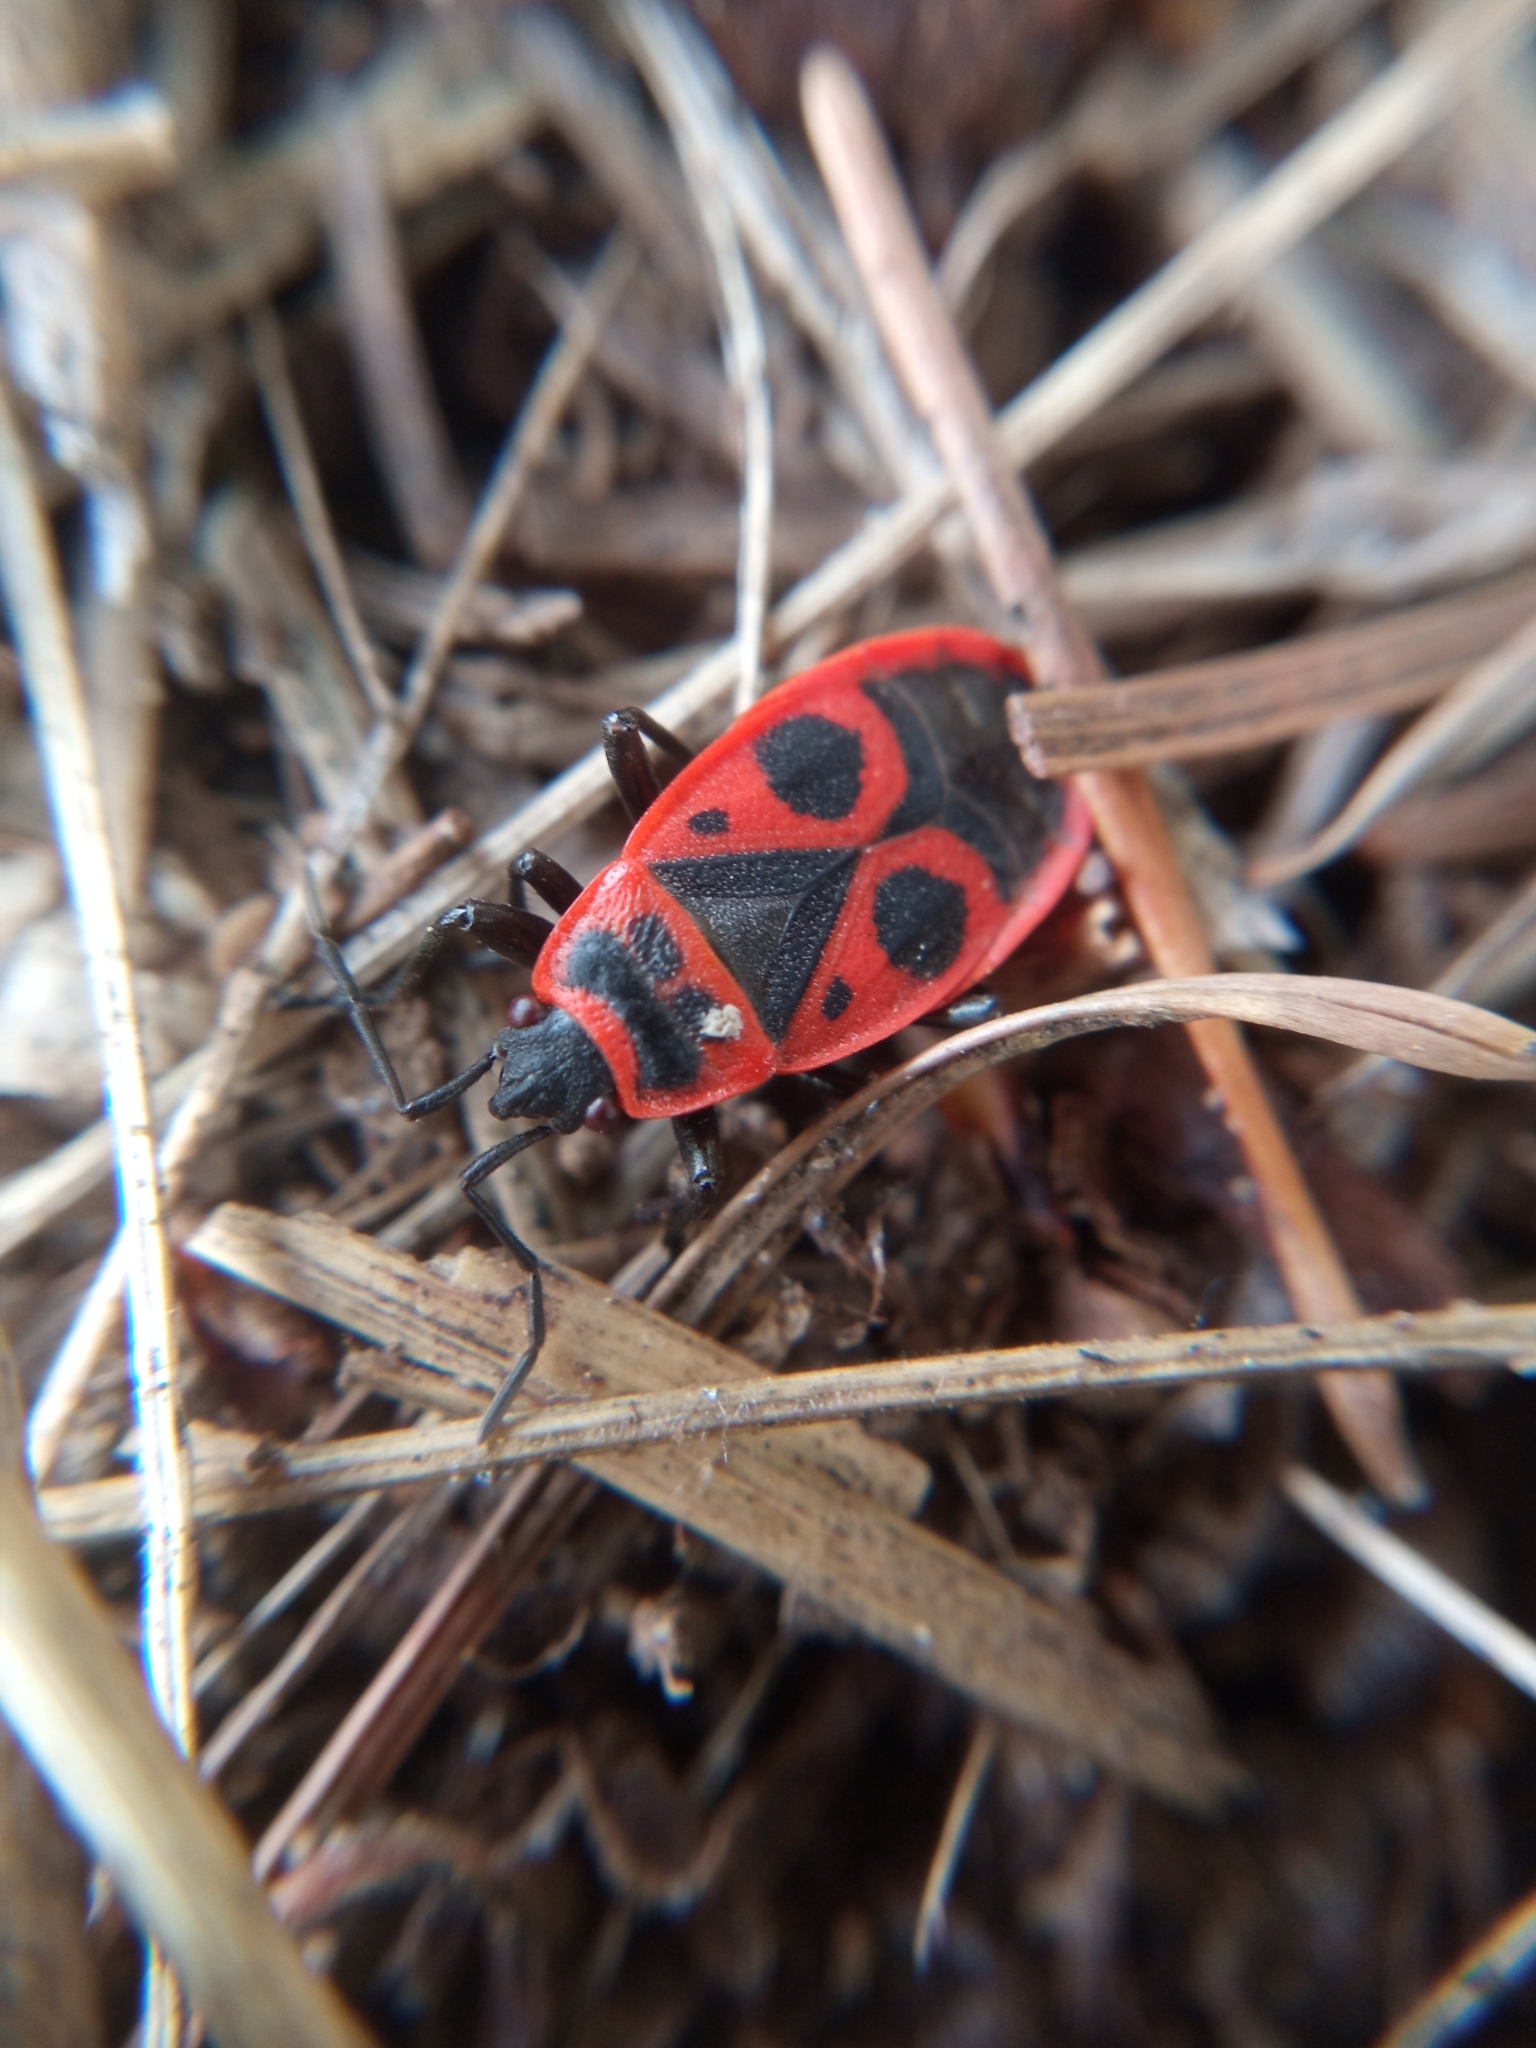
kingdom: Animalia
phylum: Arthropoda
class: Insecta
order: Hemiptera
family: Pyrrhocoridae
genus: Pyrrhocoris
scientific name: Pyrrhocoris apterus
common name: Firebug
